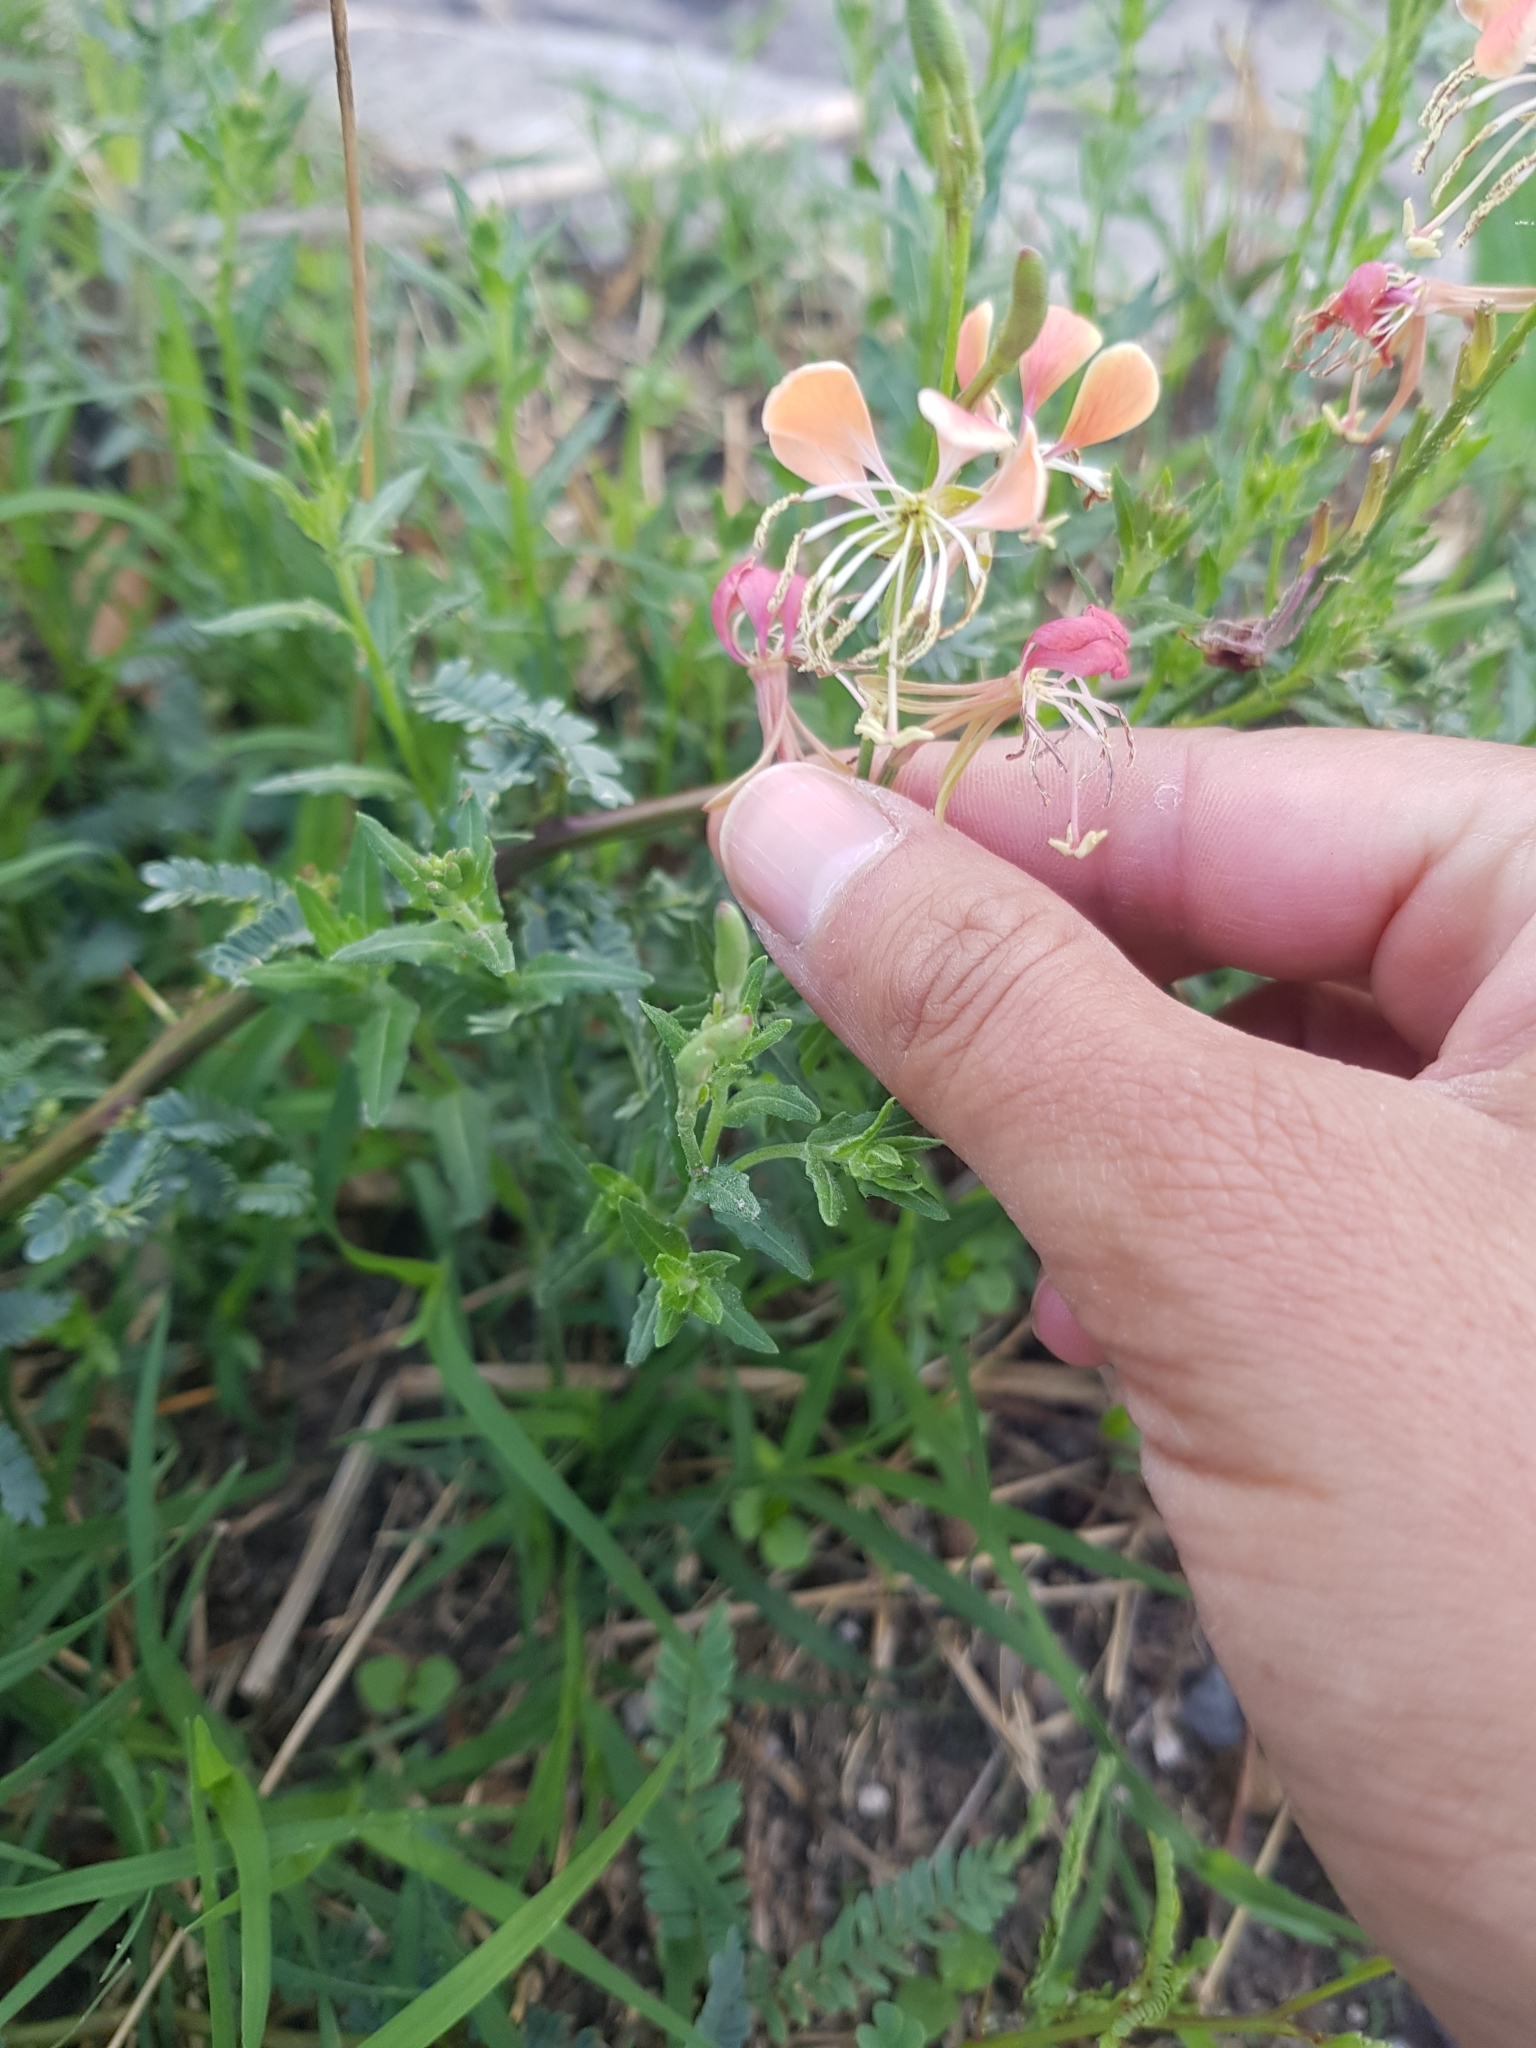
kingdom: Plantae
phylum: Tracheophyta
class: Magnoliopsida
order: Myrtales
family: Onagraceae
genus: Oenothera
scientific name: Oenothera suffrutescens
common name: Scarlet beeblossom
